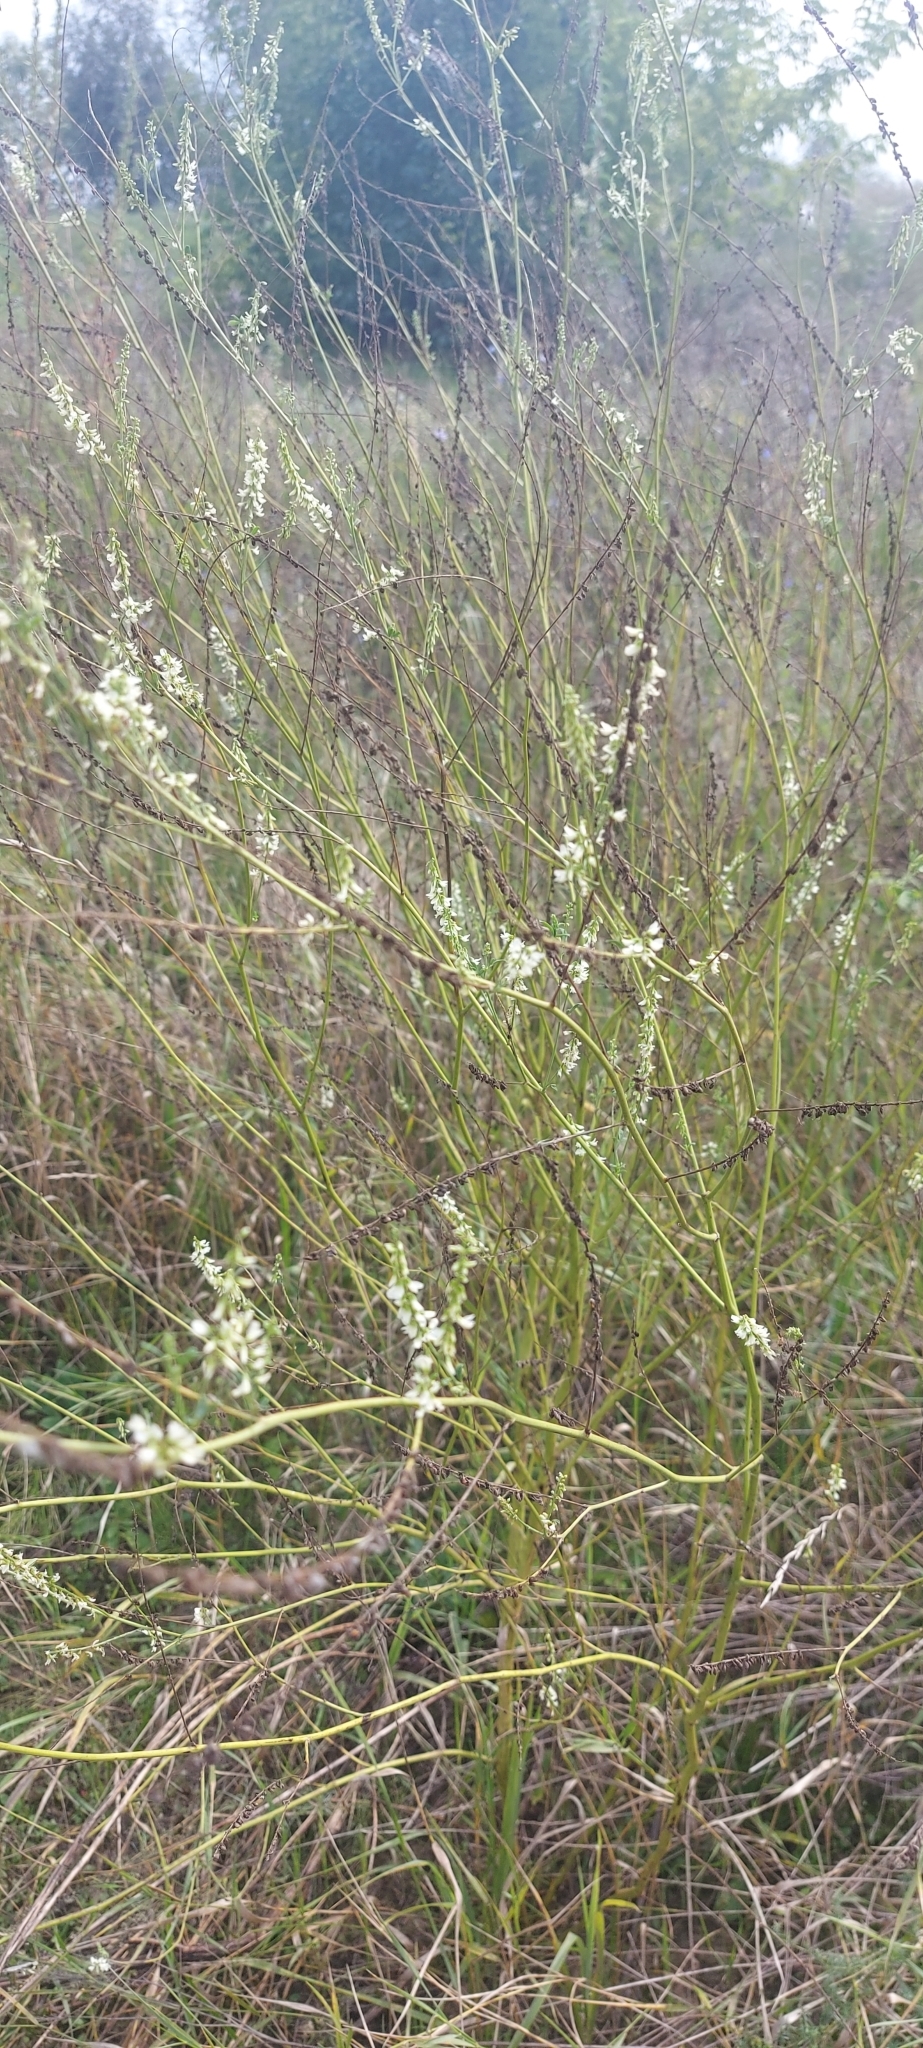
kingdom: Plantae
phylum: Tracheophyta
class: Magnoliopsida
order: Fabales
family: Fabaceae
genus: Melilotus
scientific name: Melilotus albus
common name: White melilot
